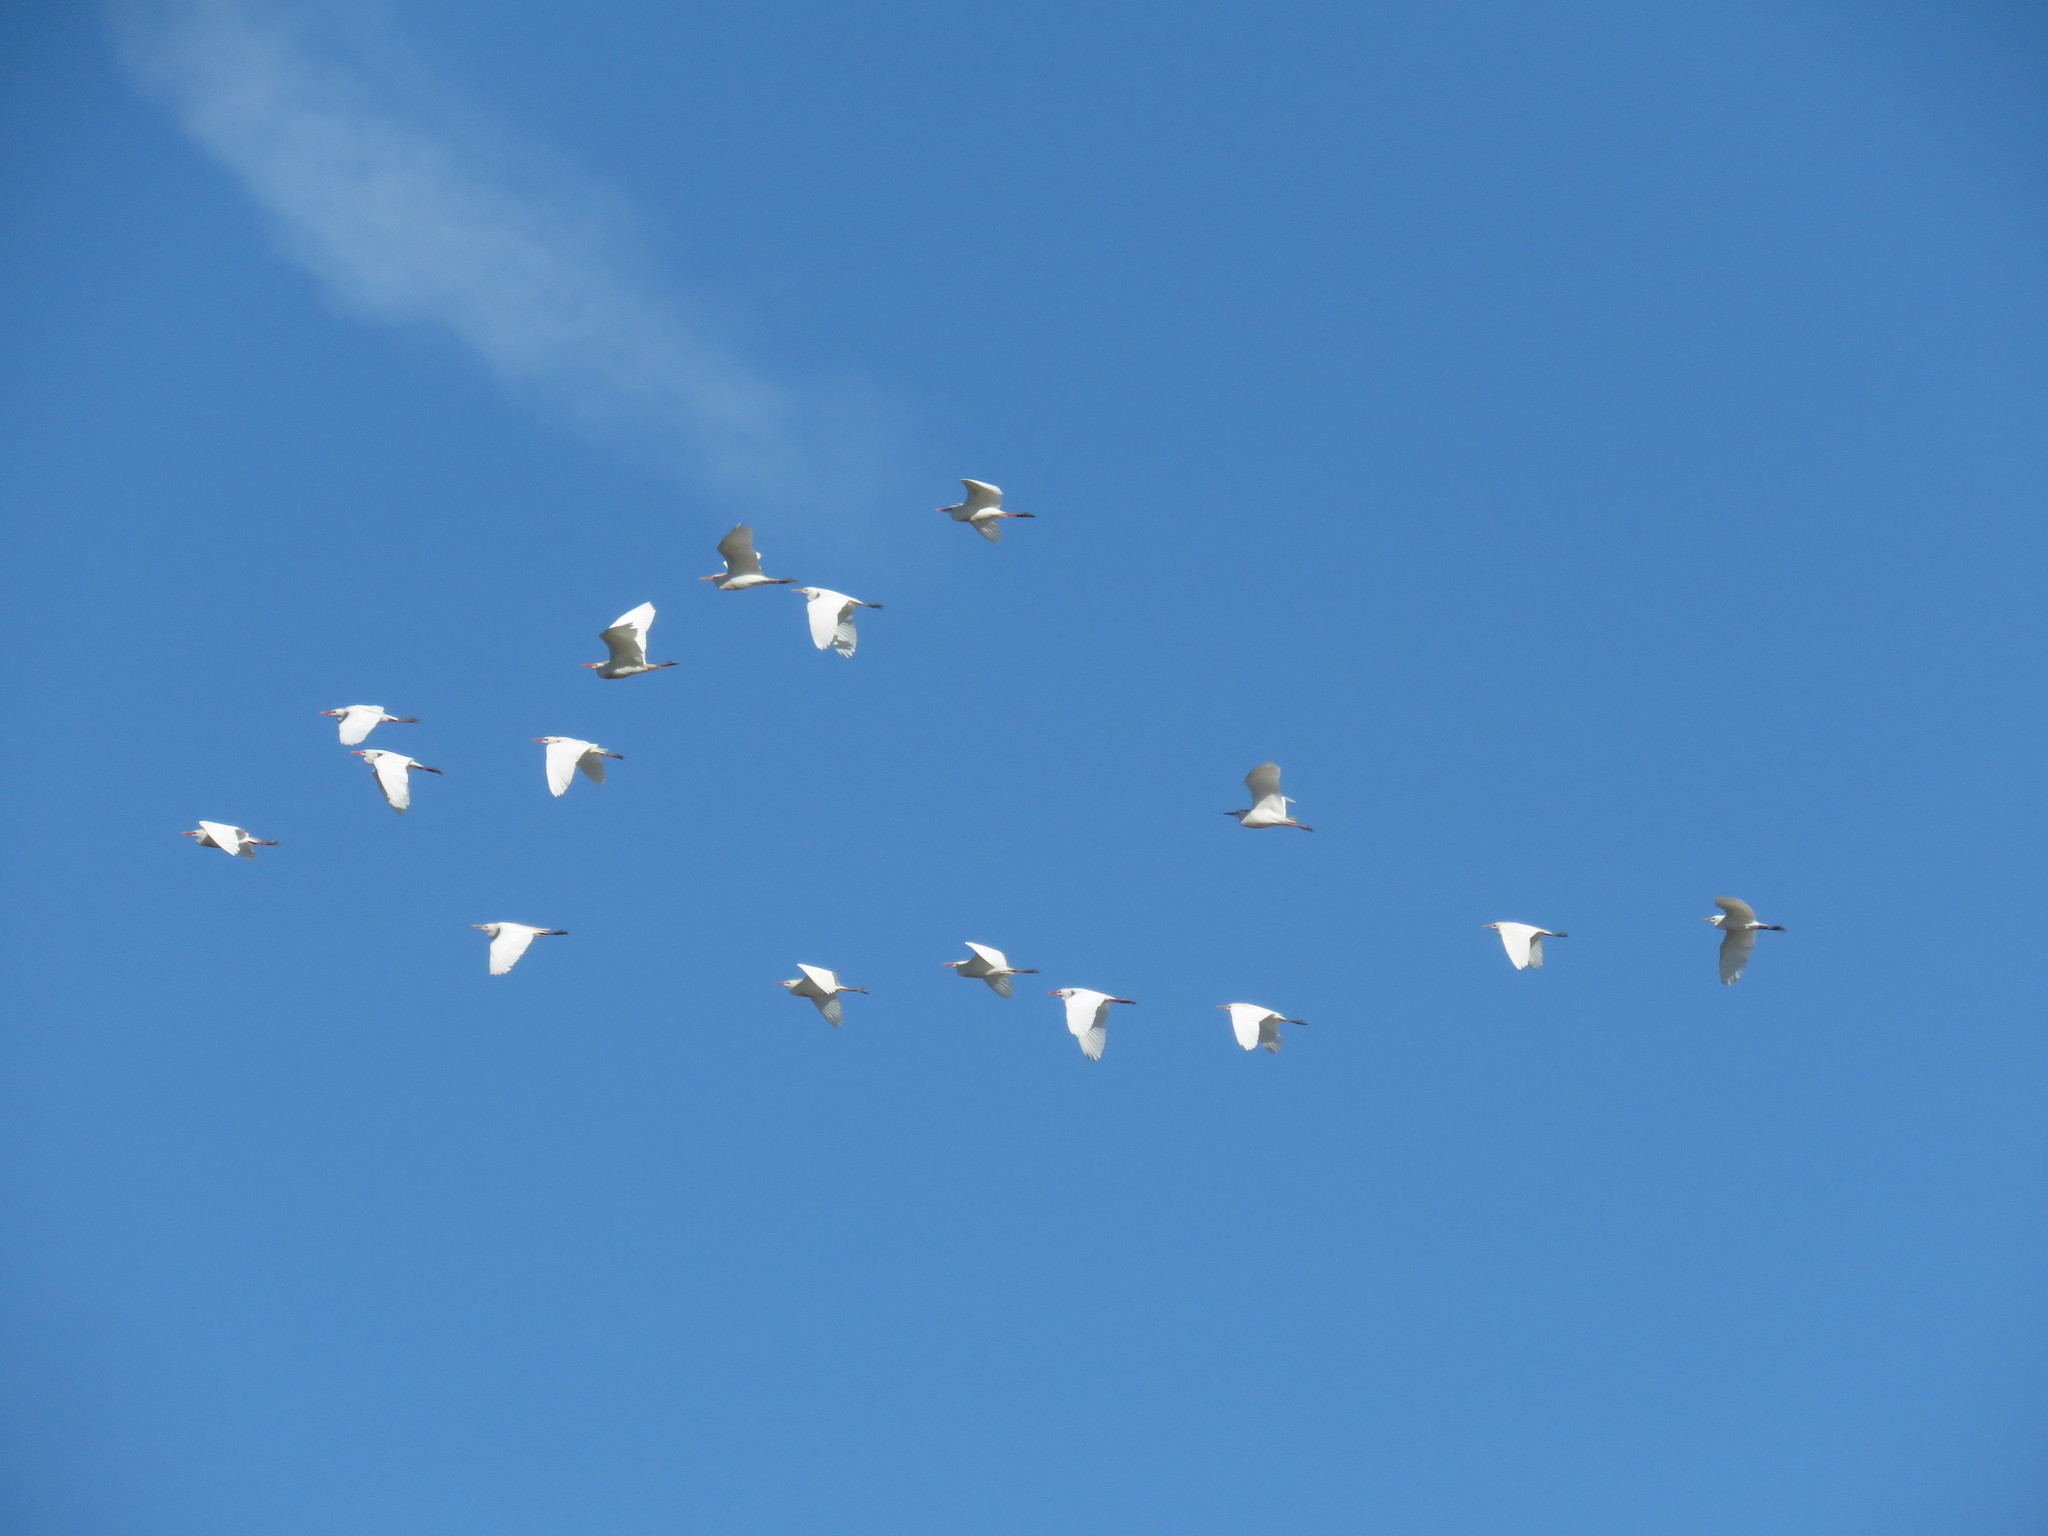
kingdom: Animalia
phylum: Chordata
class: Aves
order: Pelecaniformes
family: Ardeidae
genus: Bubulcus
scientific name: Bubulcus ibis
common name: Cattle egret
